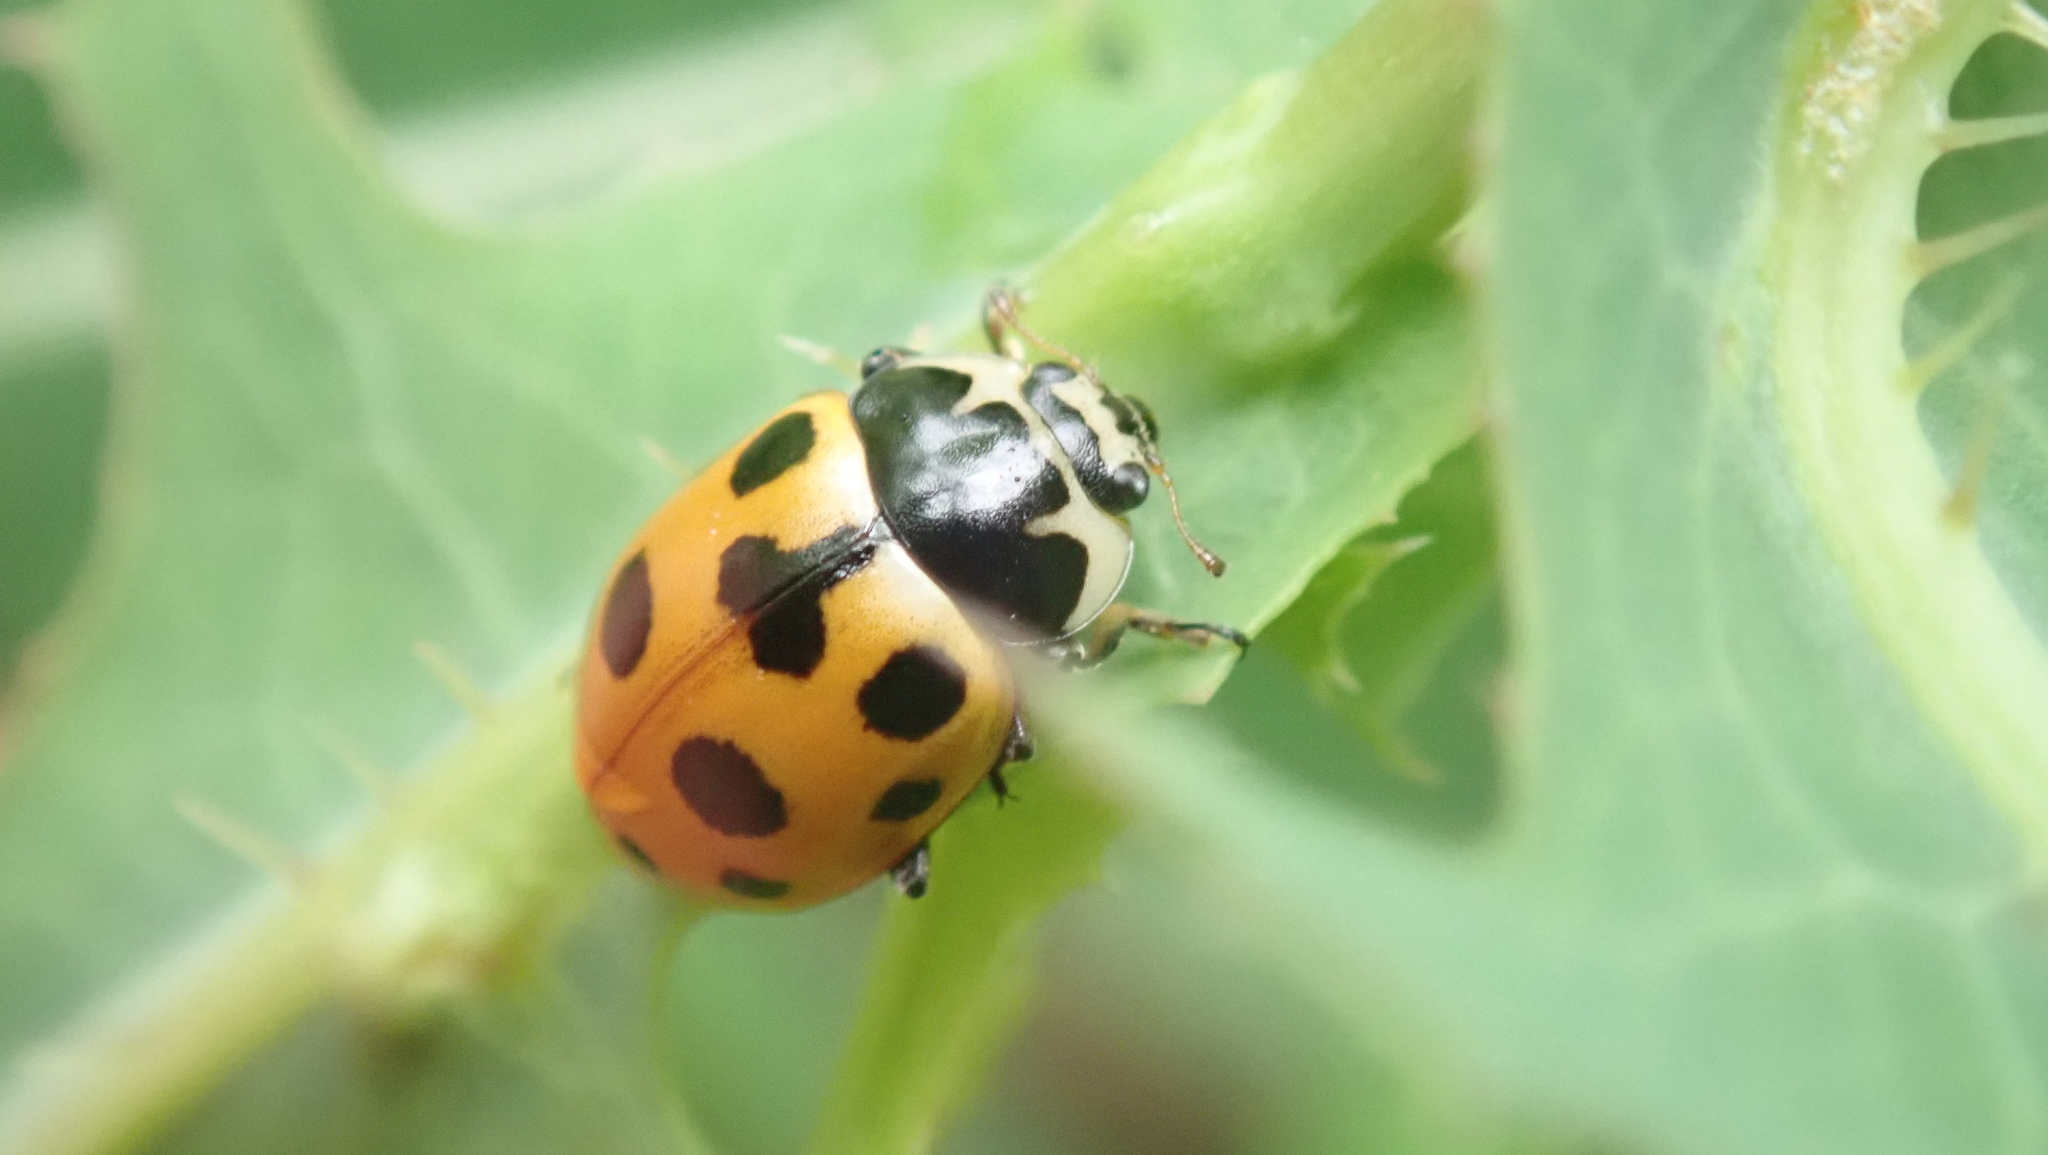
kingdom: Animalia
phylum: Arthropoda
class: Insecta
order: Coleoptera
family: Coccinellidae
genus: Ceratomegilla
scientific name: Ceratomegilla notata
